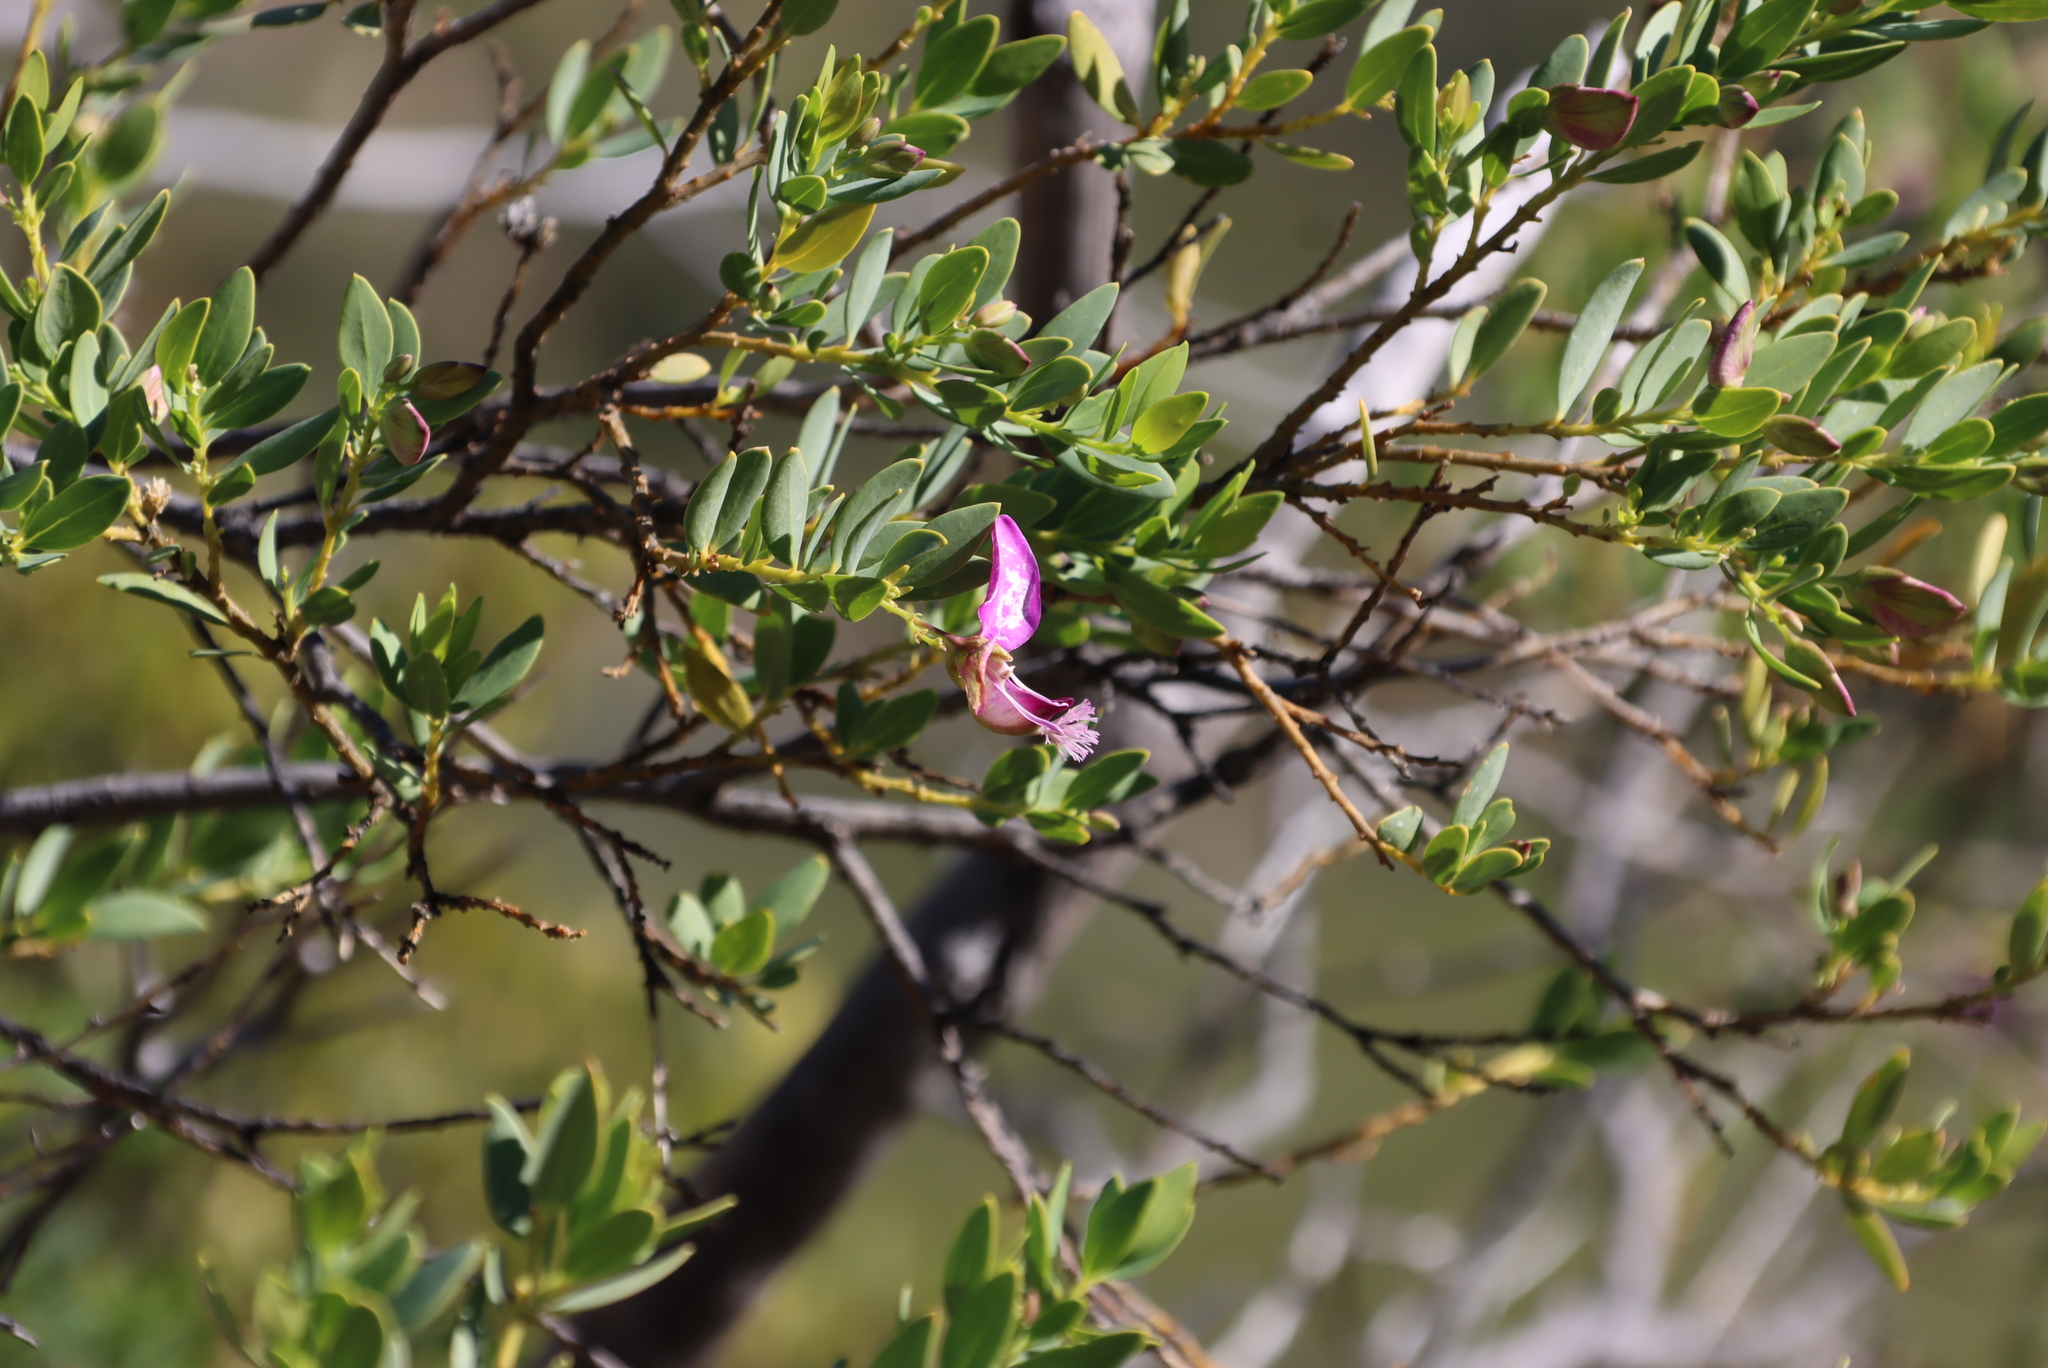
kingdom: Plantae
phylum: Tracheophyta
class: Magnoliopsida
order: Fabales
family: Polygalaceae
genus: Polygala
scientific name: Polygala myrtifolia
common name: Myrtle-leaf milkwort
